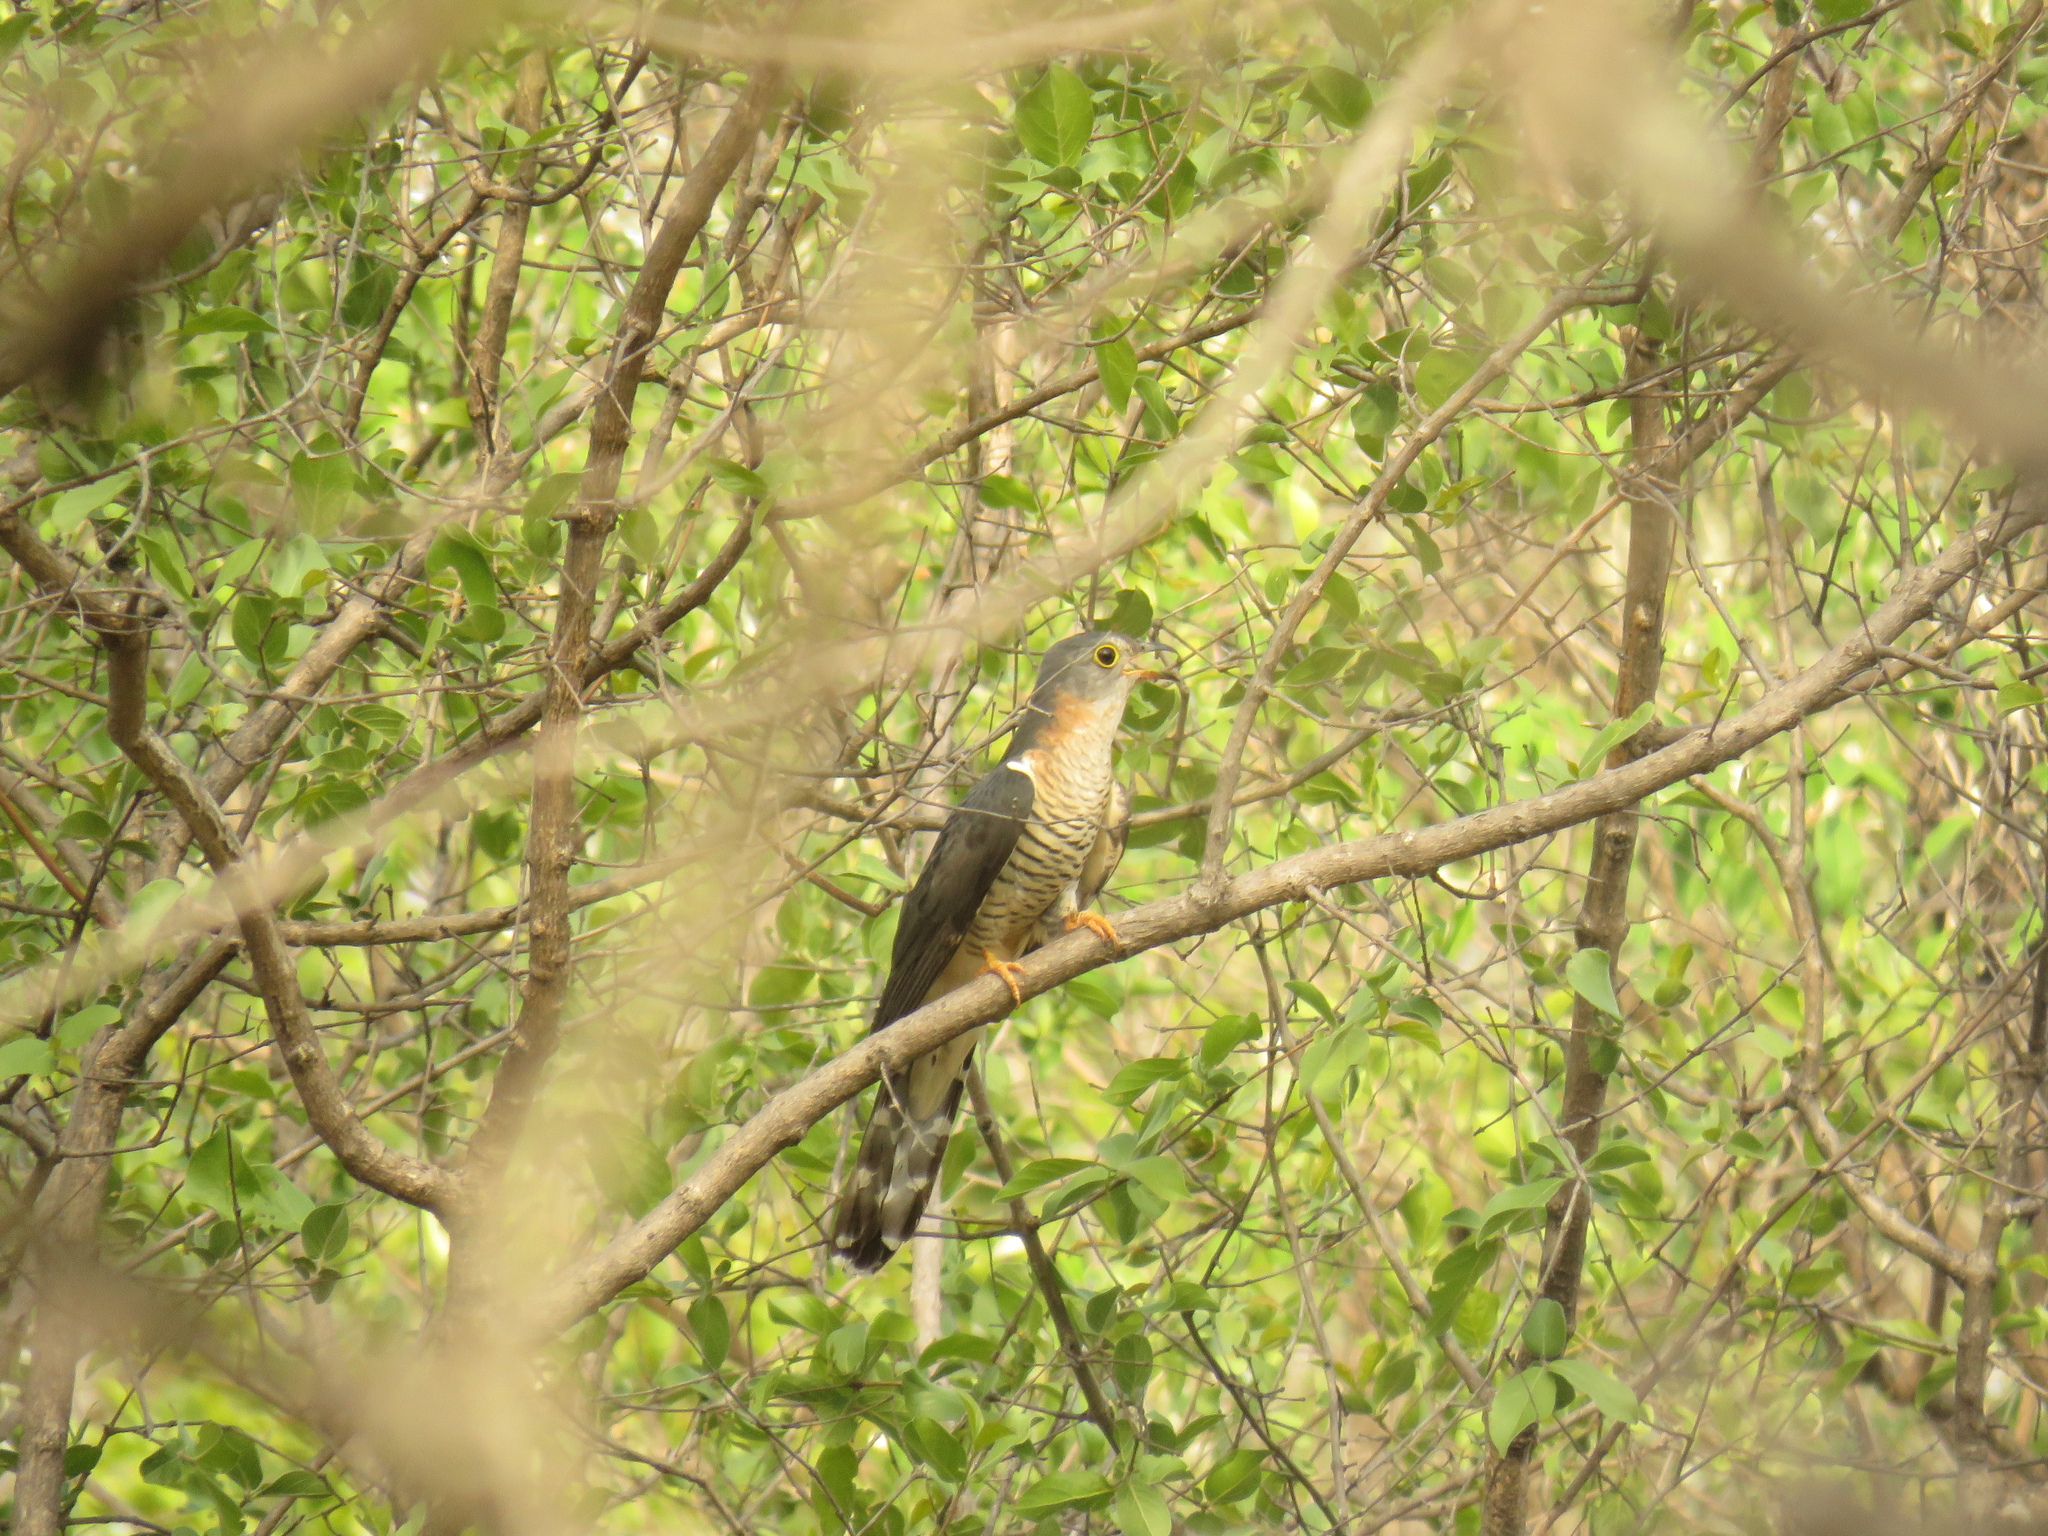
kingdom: Animalia
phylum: Chordata
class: Aves
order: Cuculiformes
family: Cuculidae
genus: Cuculus
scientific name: Cuculus solitarius
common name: Red-chested cuckoo
